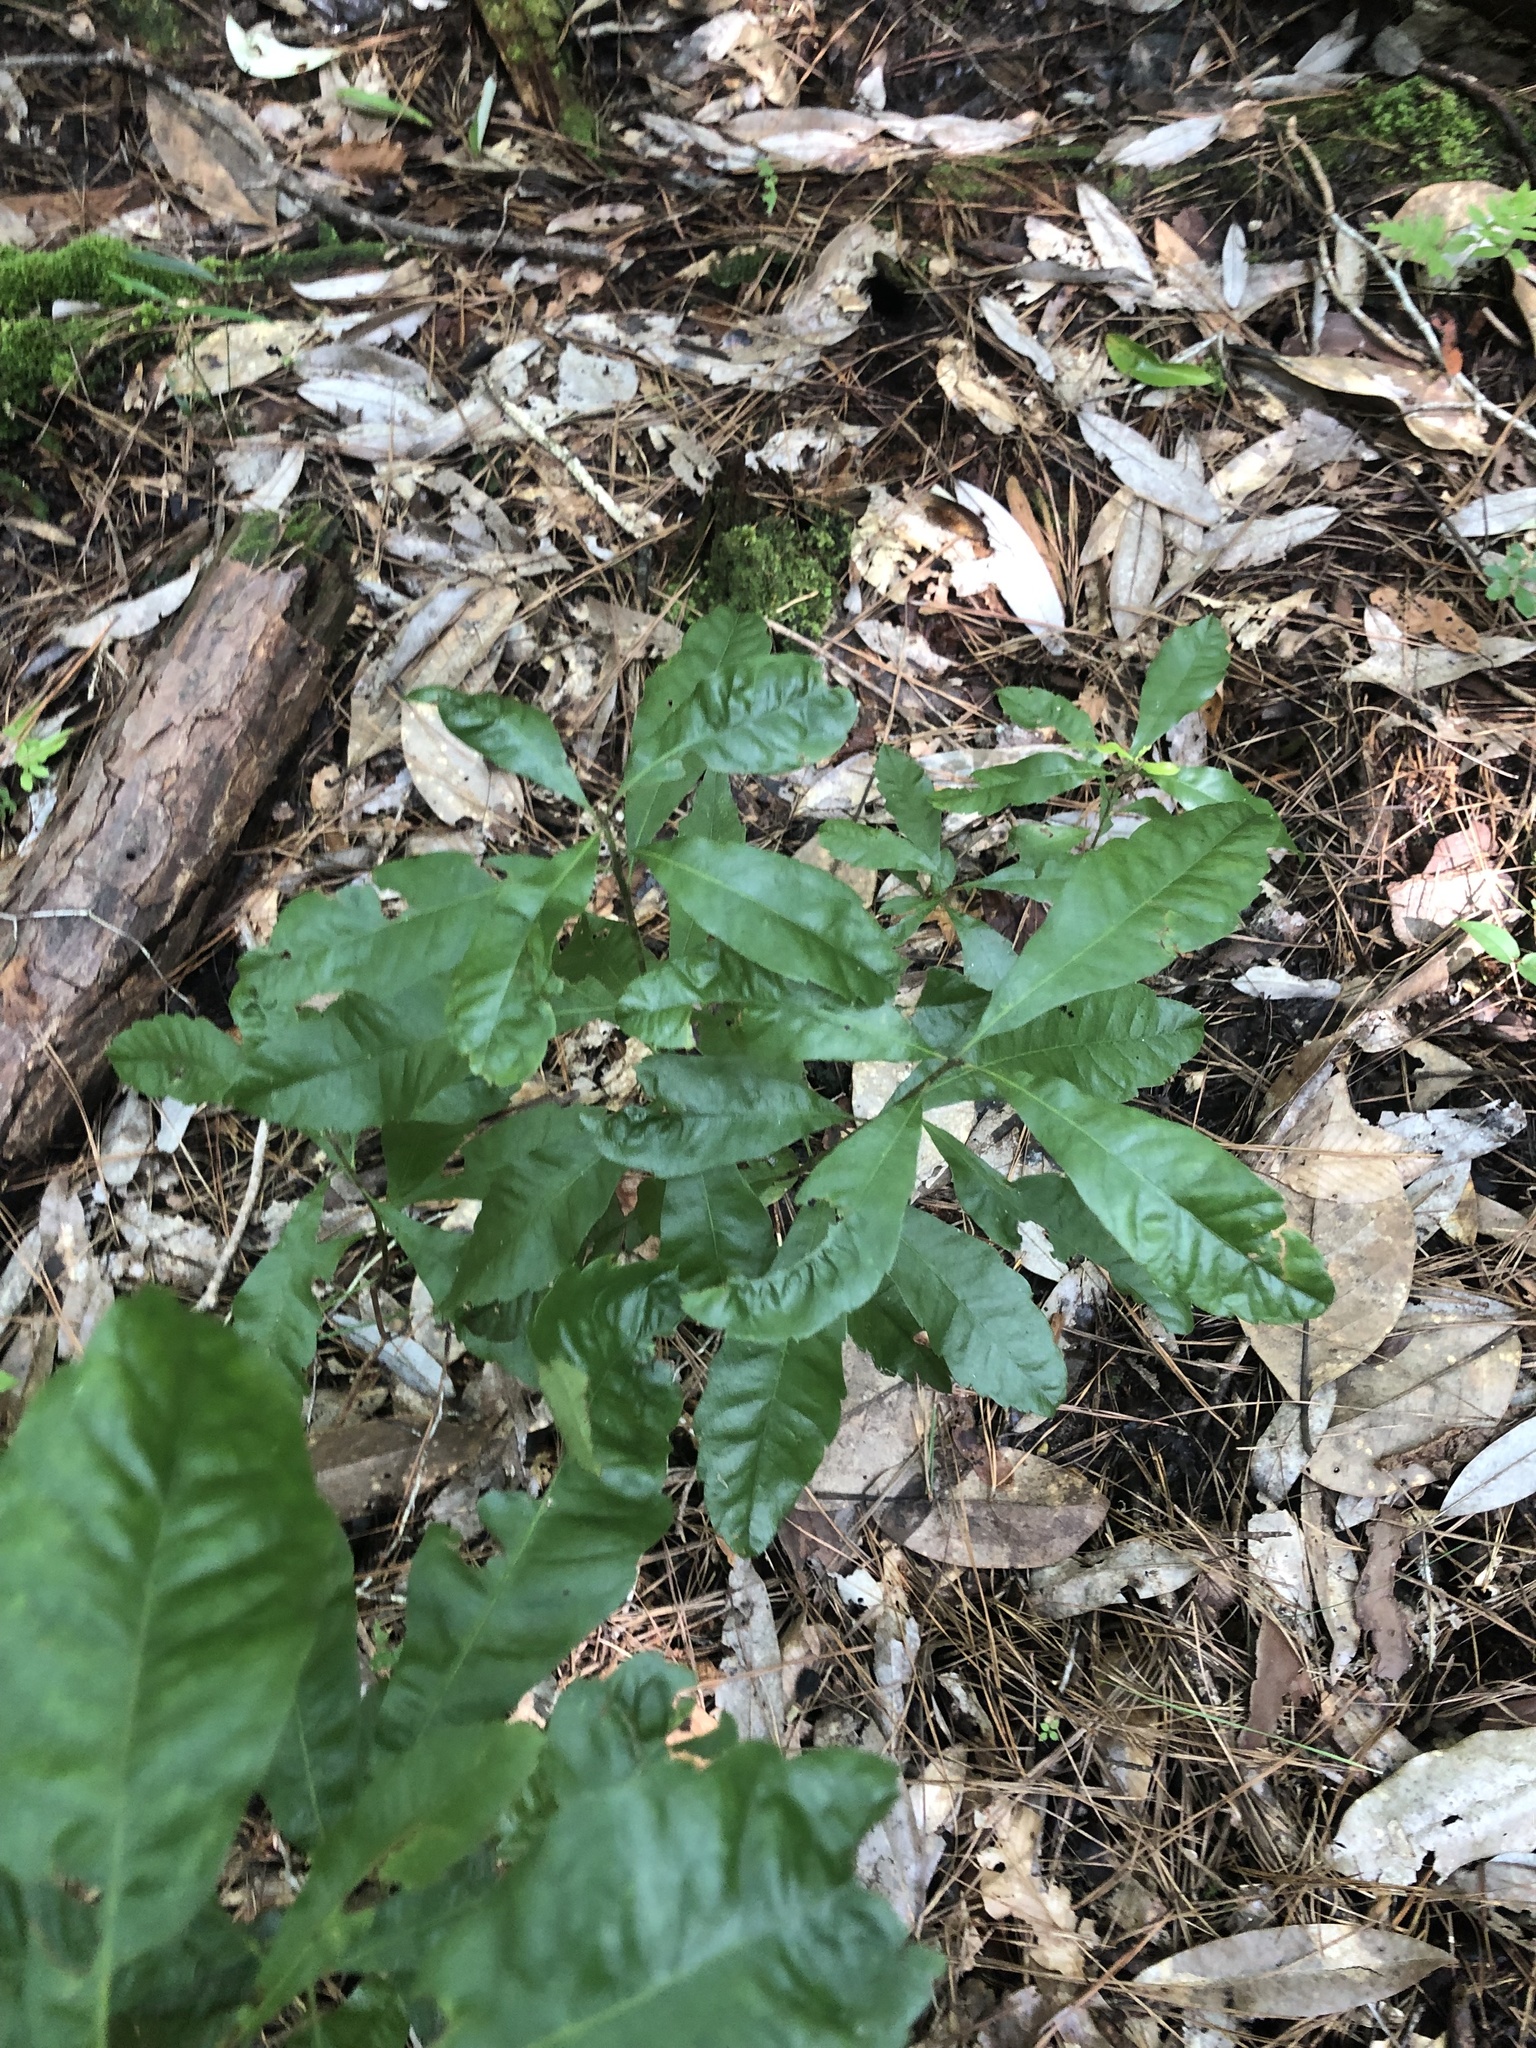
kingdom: Plantae
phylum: Tracheophyta
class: Magnoliopsida
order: Fagales
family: Myricaceae
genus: Morella
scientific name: Morella caroliniensis
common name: Evergreen bayberry
